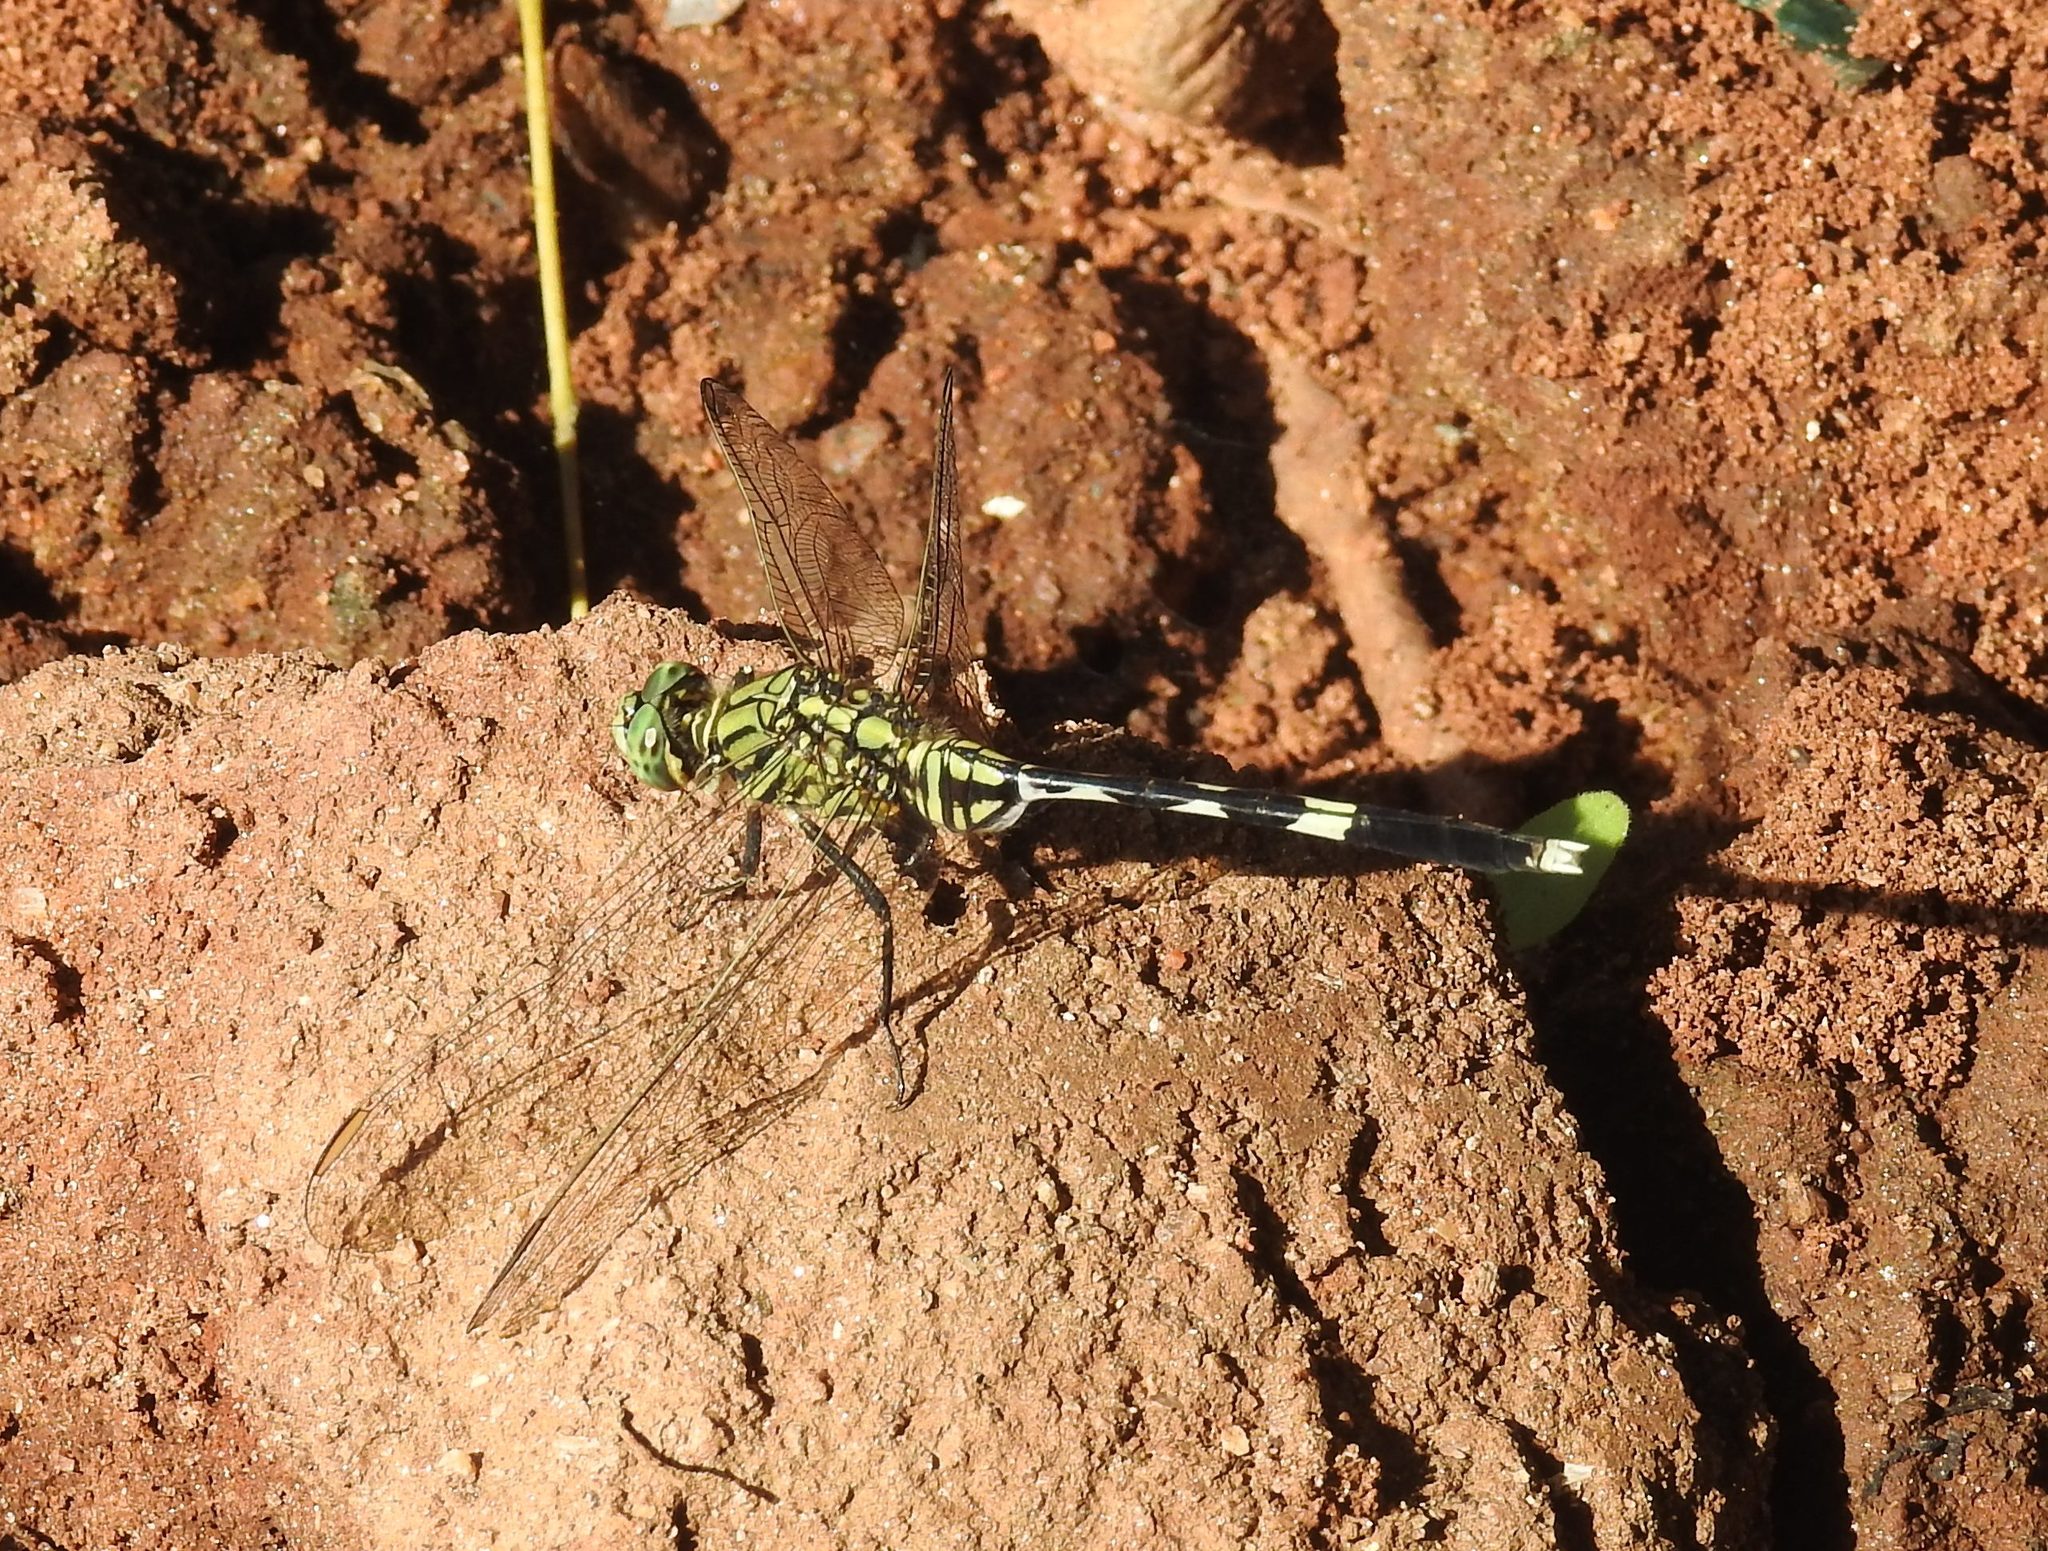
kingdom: Animalia
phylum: Arthropoda
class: Insecta
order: Odonata
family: Libellulidae
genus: Orthetrum
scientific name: Orthetrum sabina
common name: Slender skimmer
